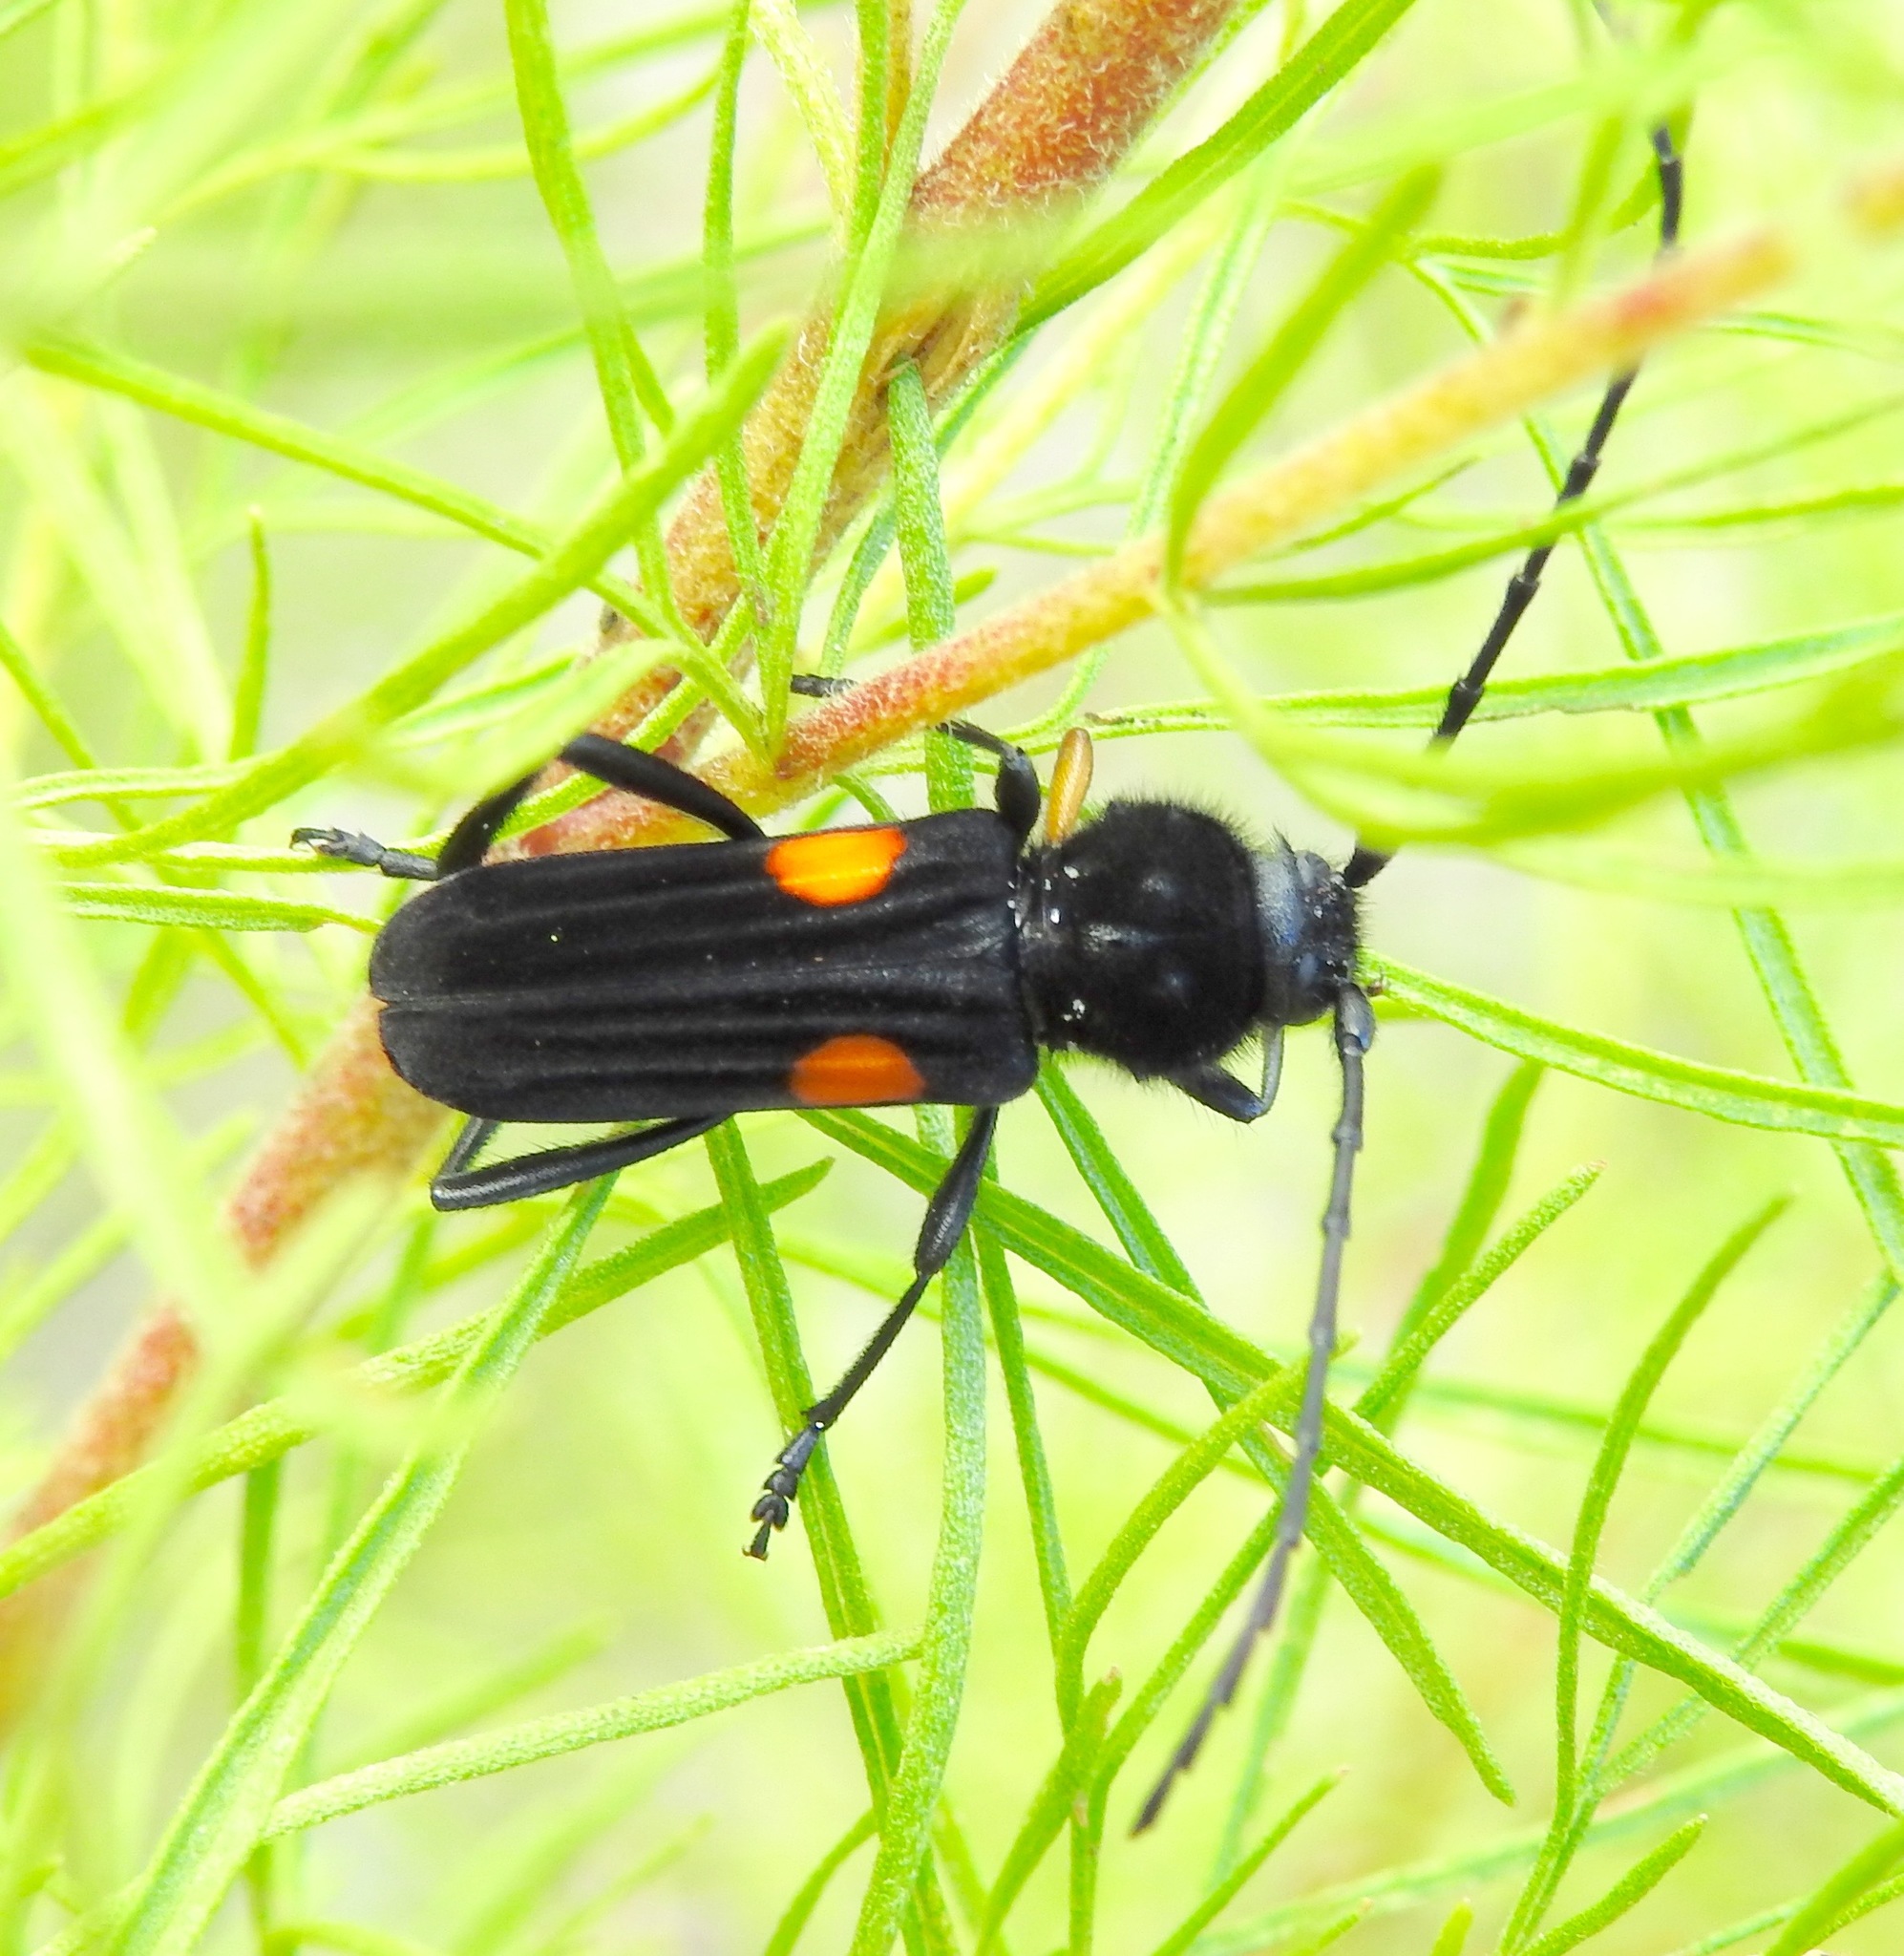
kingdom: Animalia
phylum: Arthropoda
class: Insecta
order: Coleoptera
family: Cerambycidae
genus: Tragidion
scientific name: Tragidion coquus
